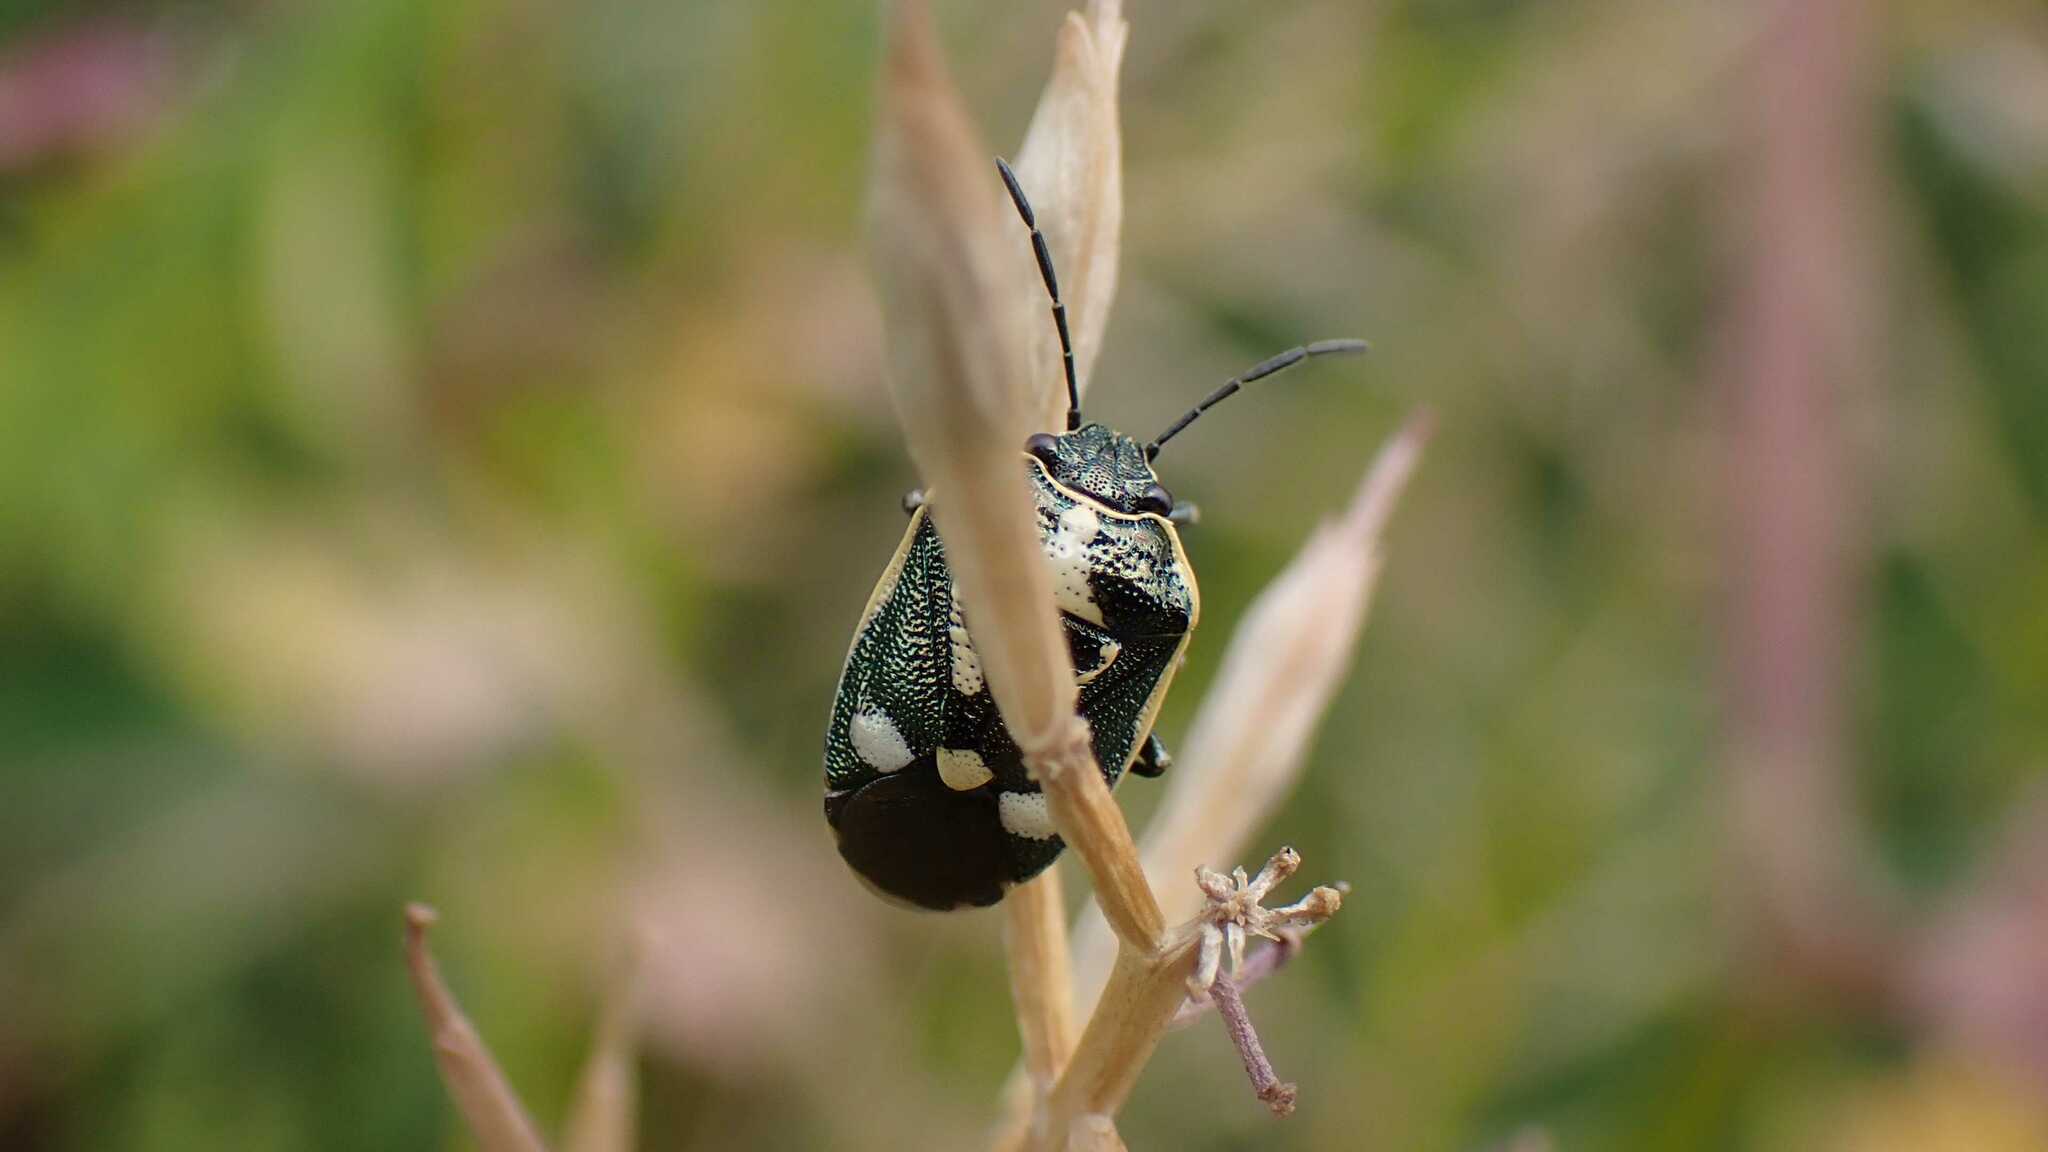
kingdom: Animalia
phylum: Arthropoda
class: Insecta
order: Hemiptera
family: Pentatomidae
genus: Eurydema
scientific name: Eurydema oleracea
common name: Cabbage bug
